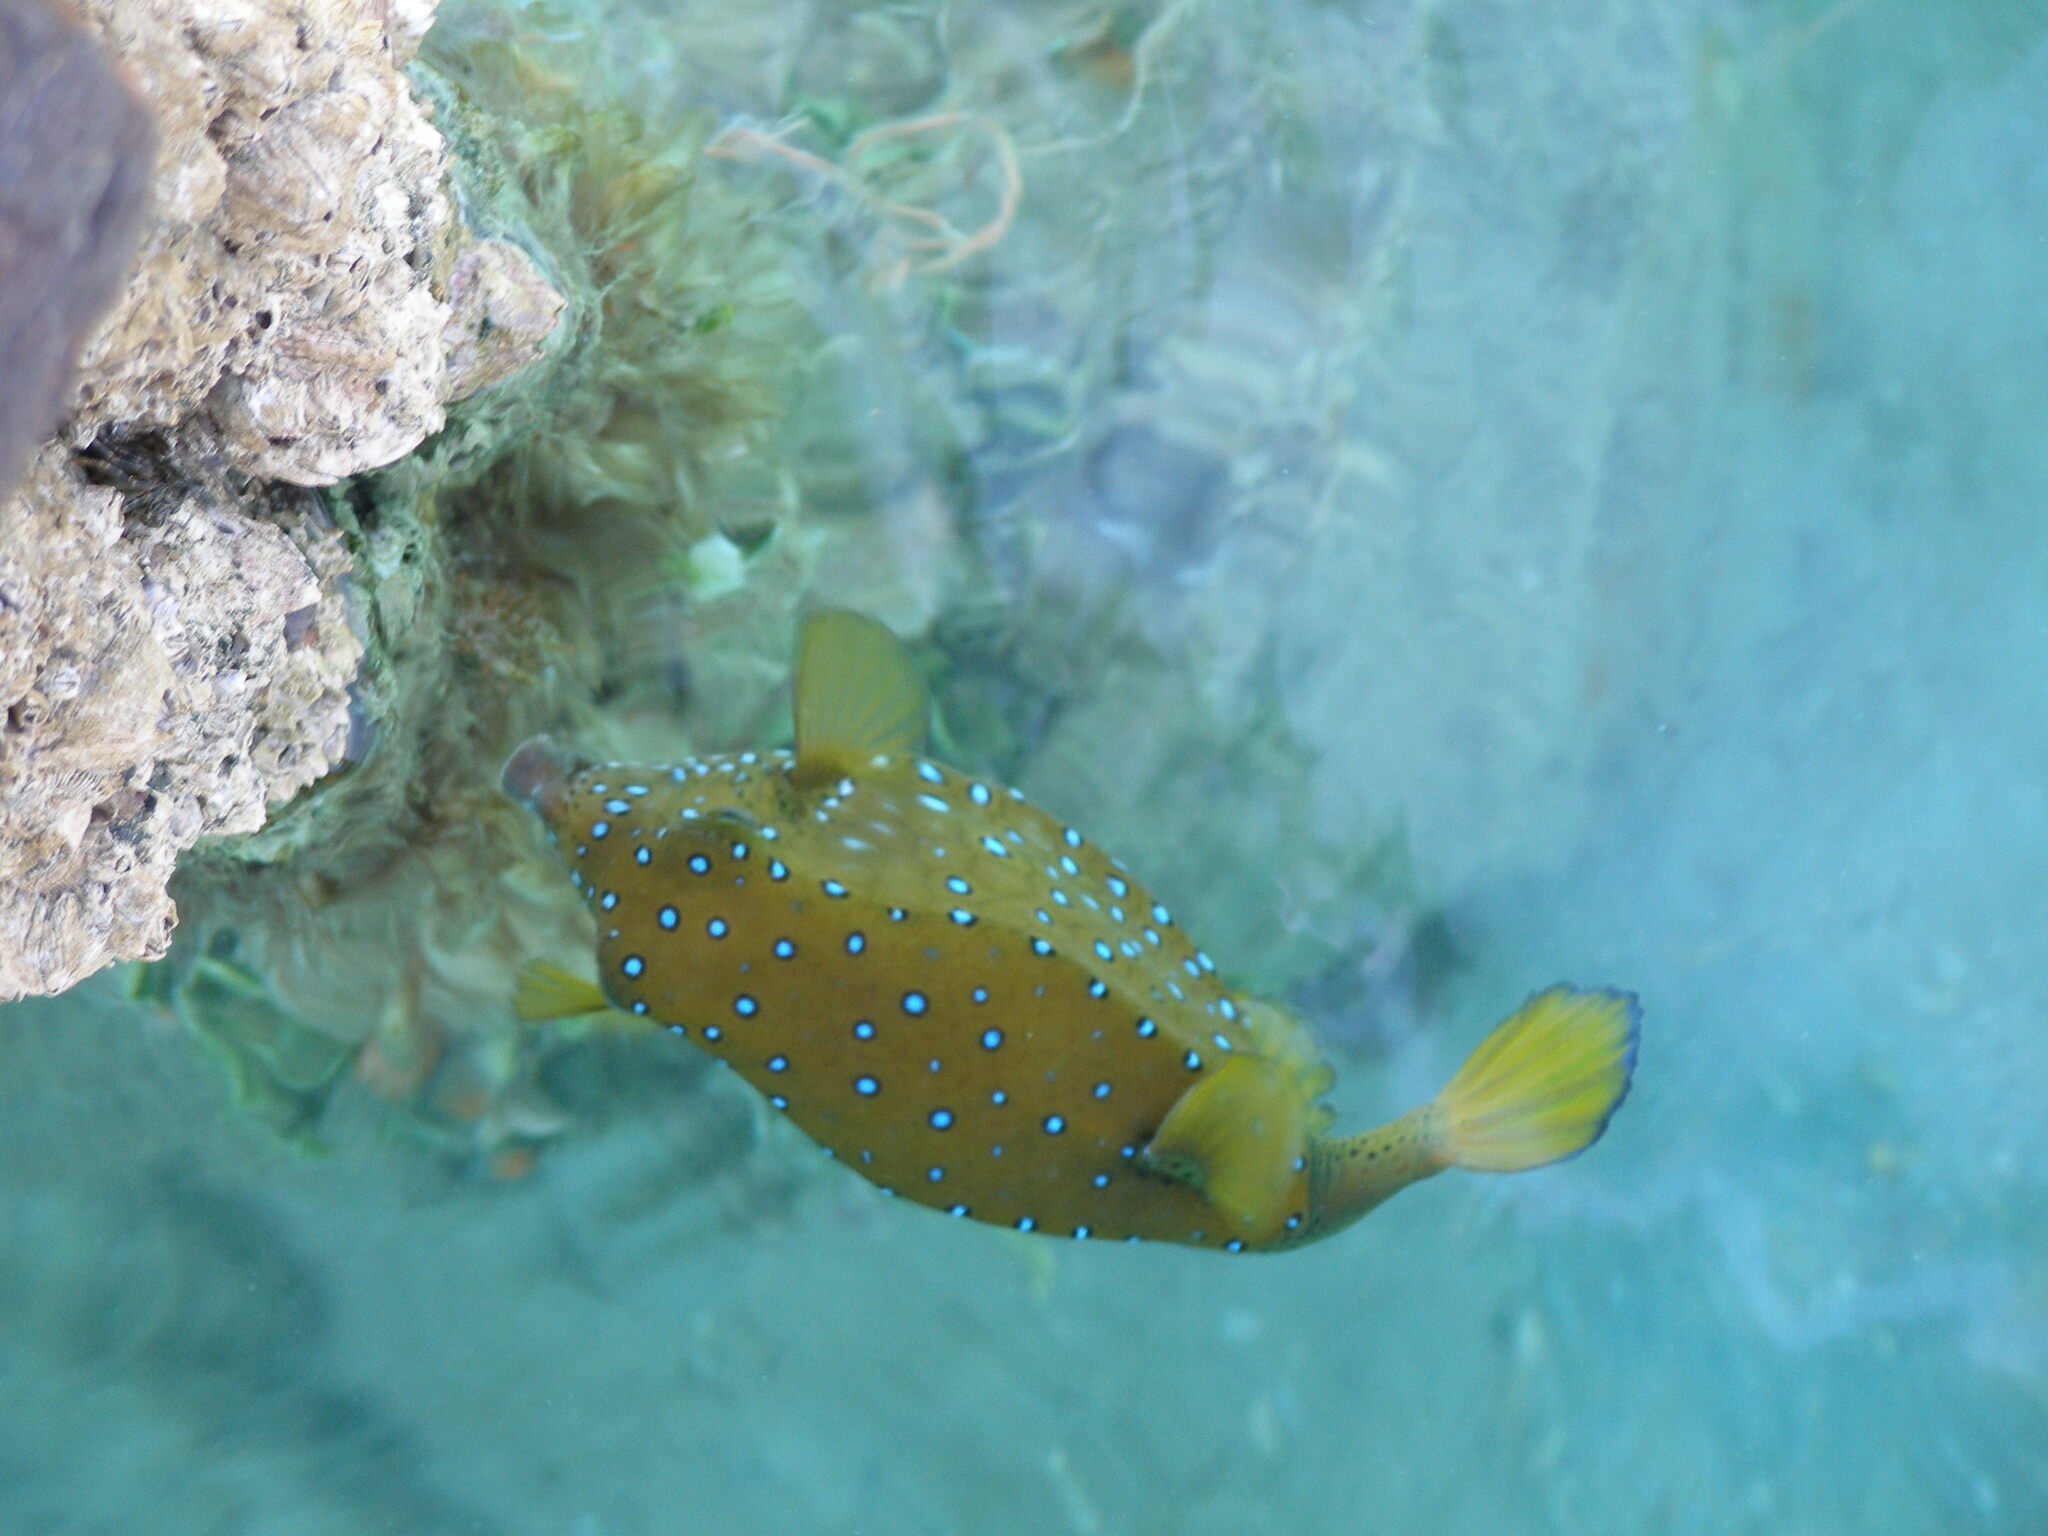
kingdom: Animalia
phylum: Chordata
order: Tetraodontiformes
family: Ostraciidae
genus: Ostracion
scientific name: Ostracion cubicus
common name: Cube trunkfish
